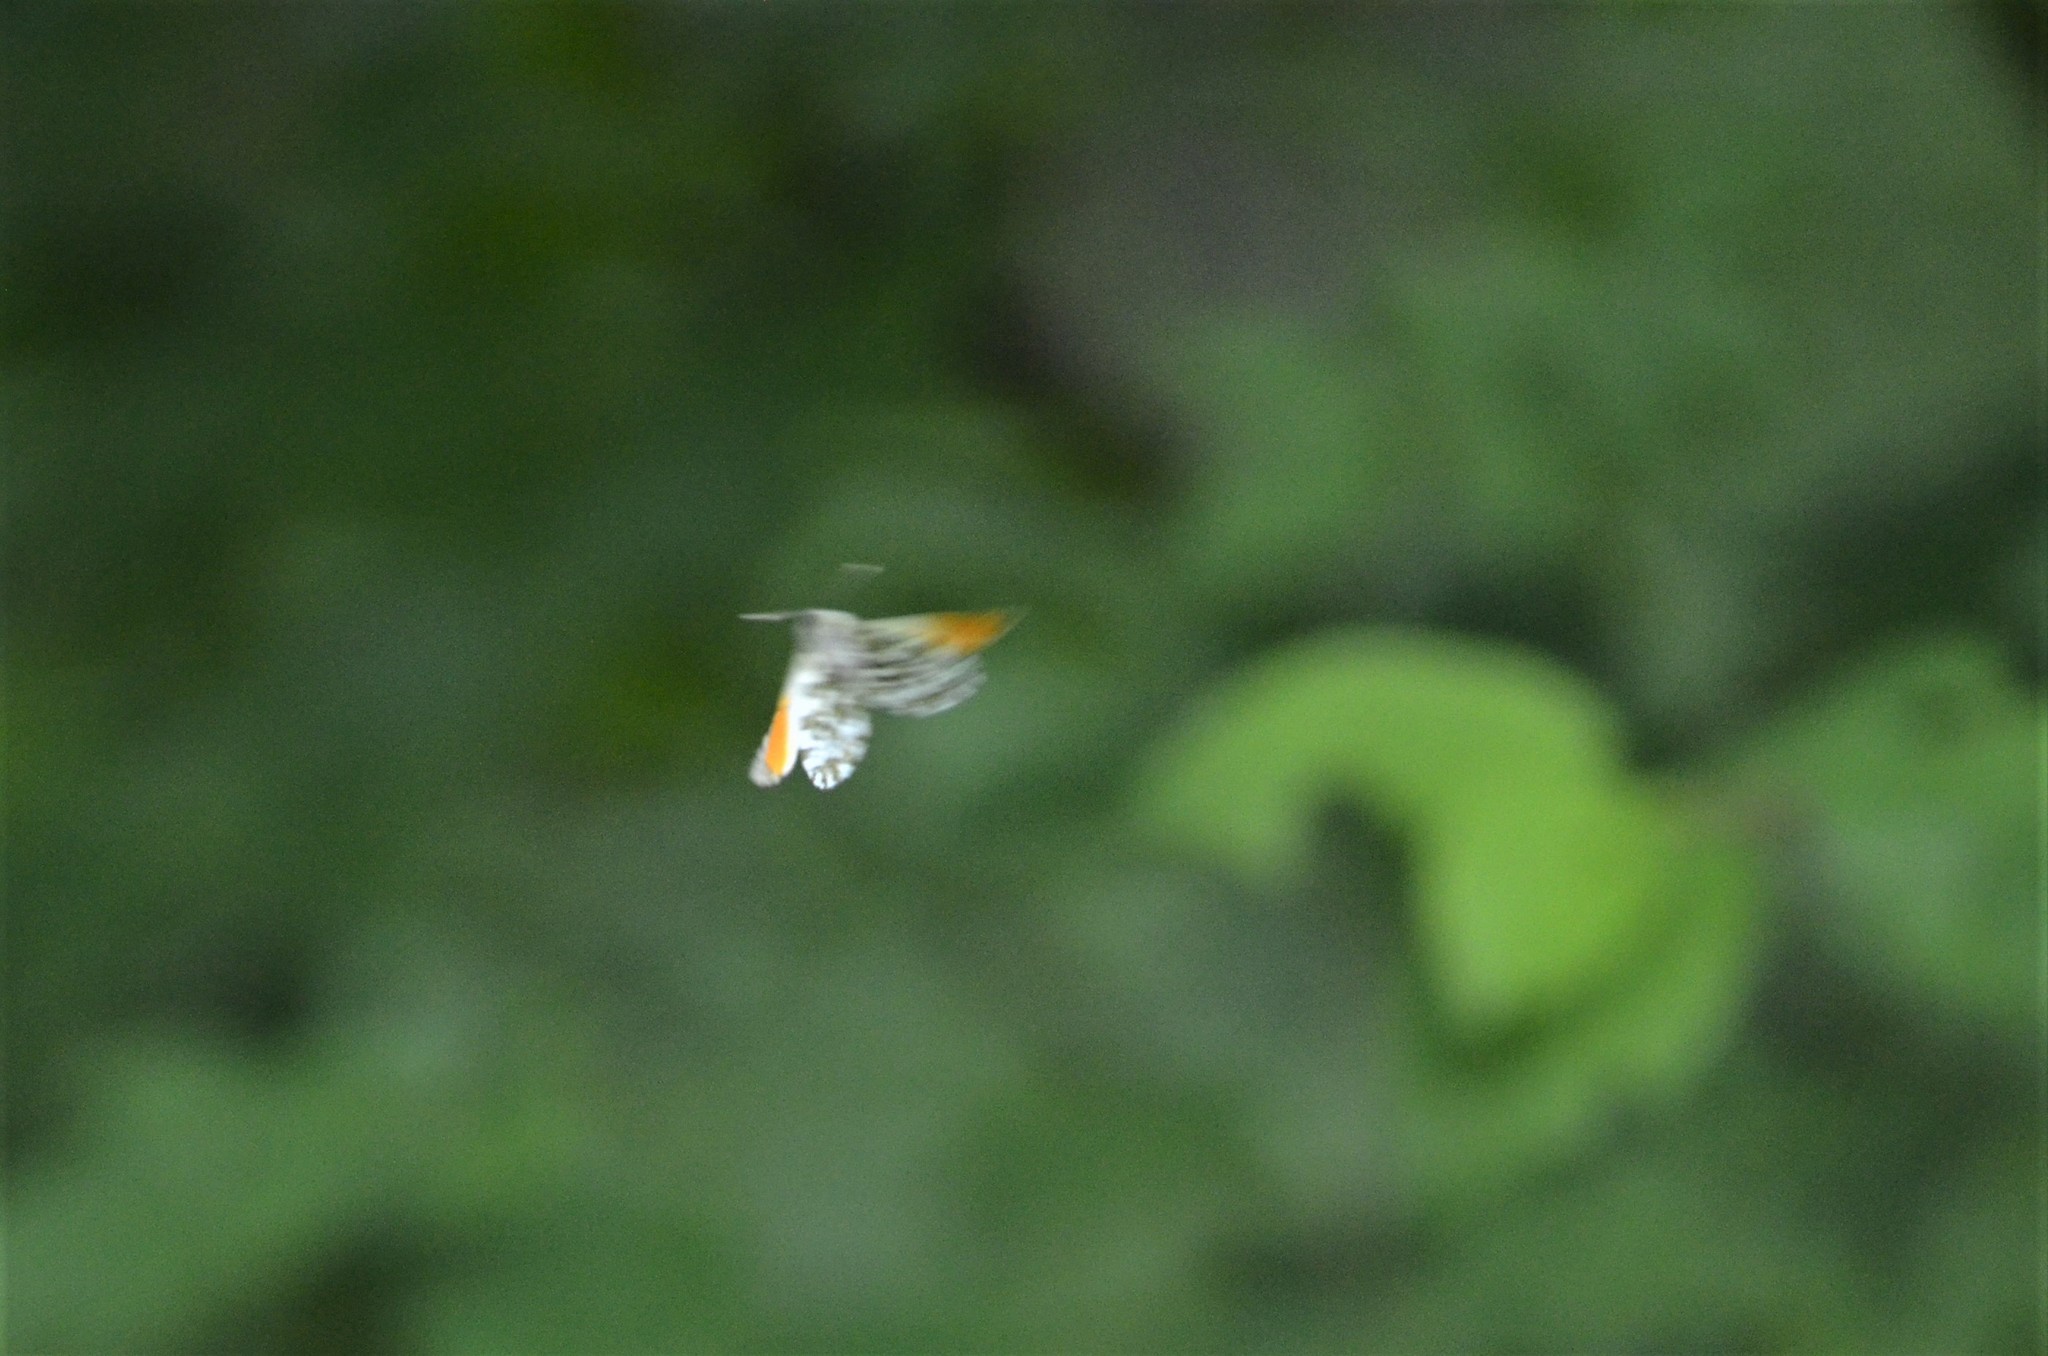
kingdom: Animalia
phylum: Arthropoda
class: Insecta
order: Lepidoptera
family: Pieridae
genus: Anthocharis
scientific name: Anthocharis cardamines
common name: Orange-tip
